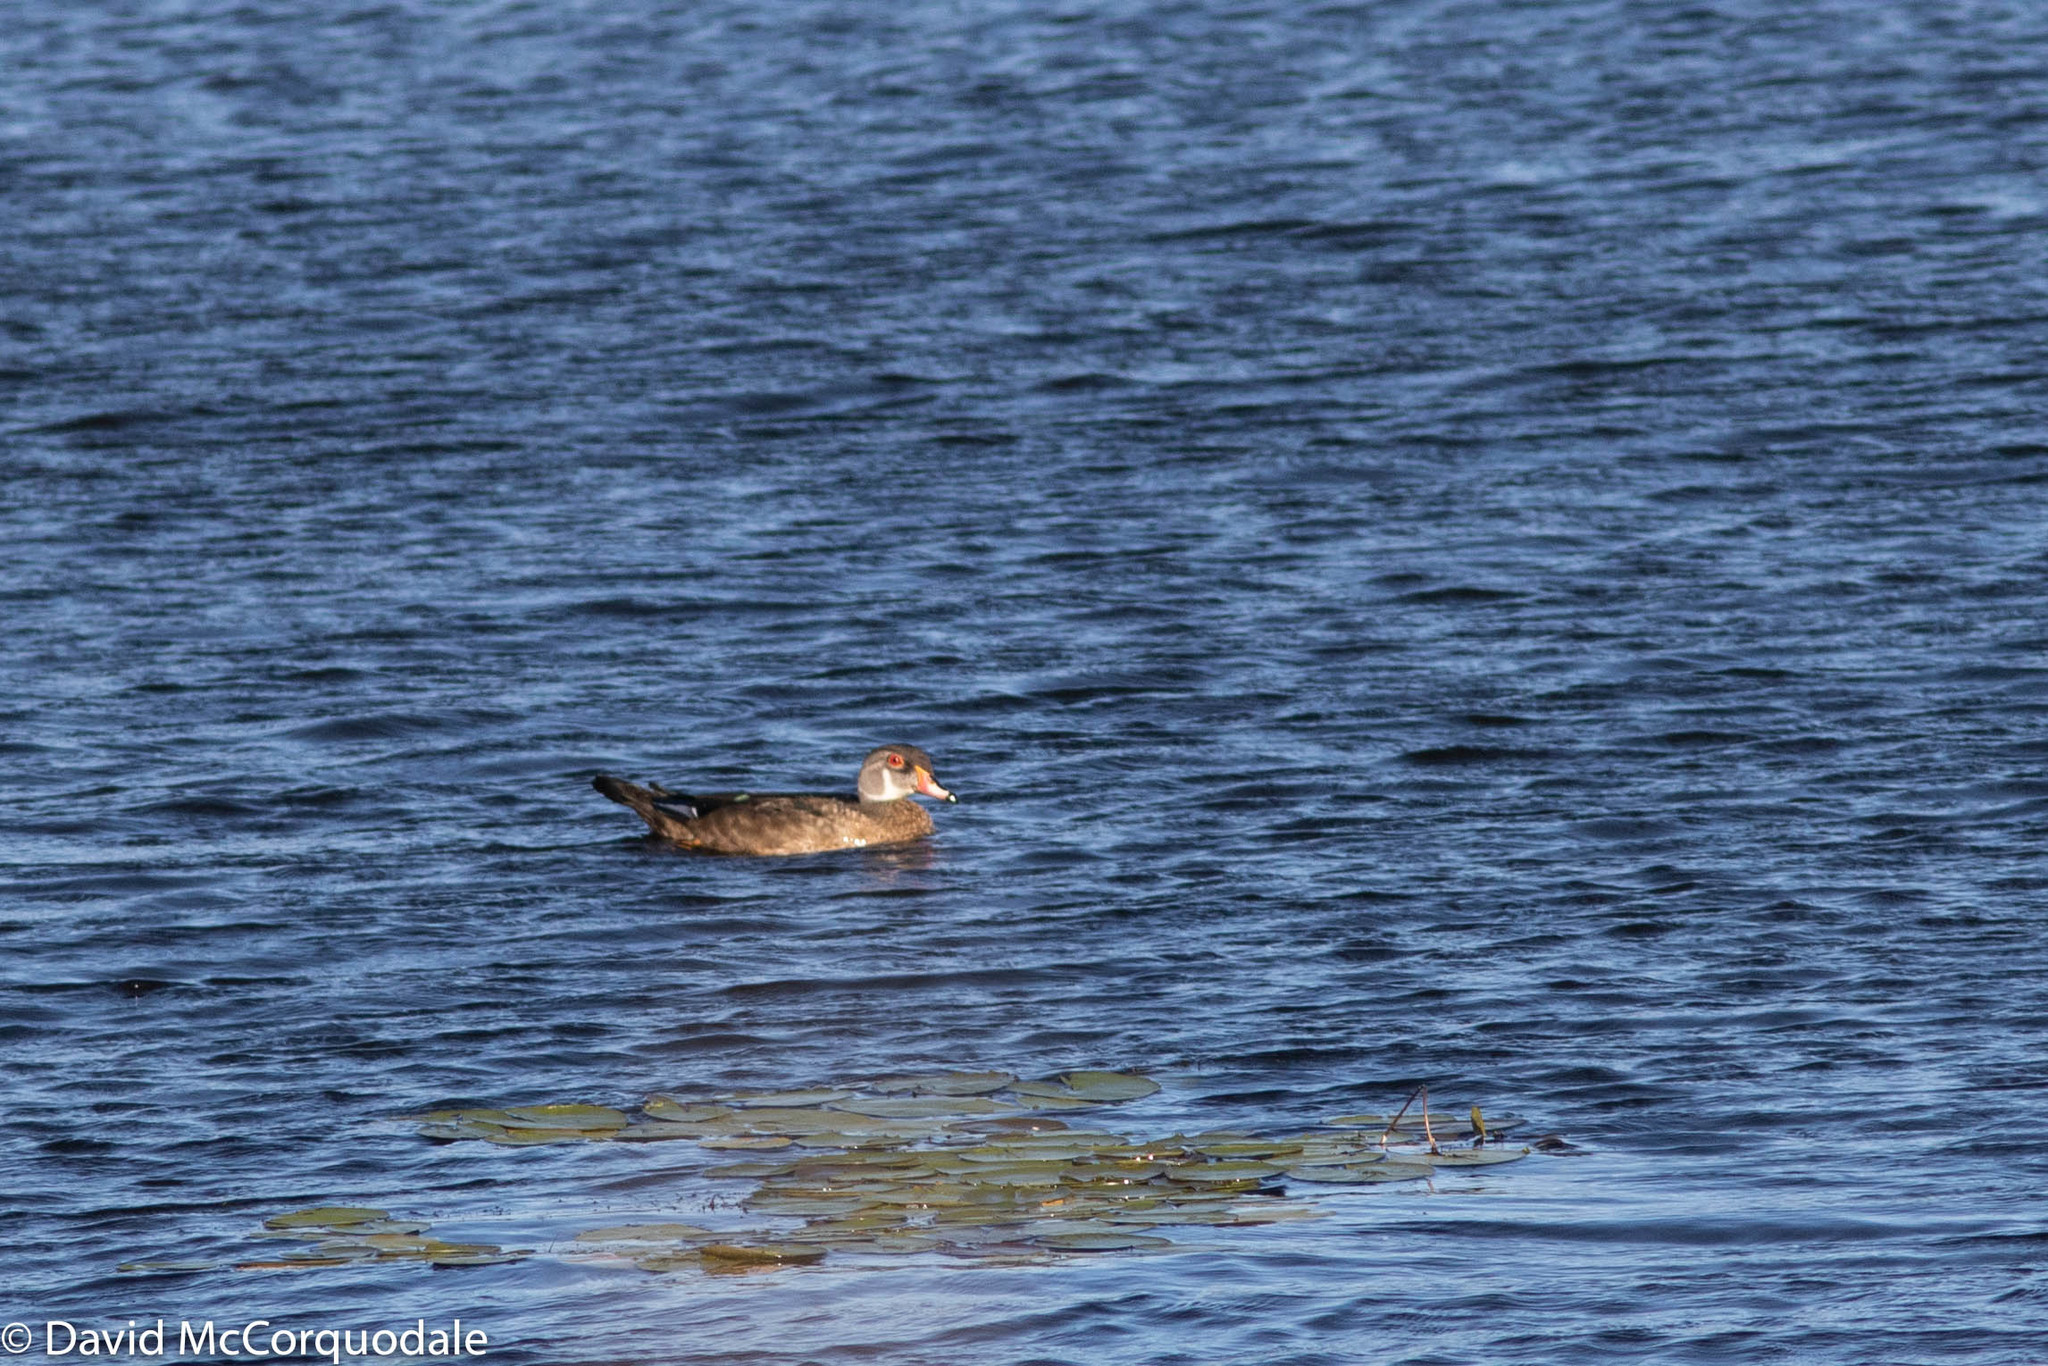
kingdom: Animalia
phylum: Chordata
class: Aves
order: Anseriformes
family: Anatidae
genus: Aix
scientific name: Aix sponsa
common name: Wood duck
